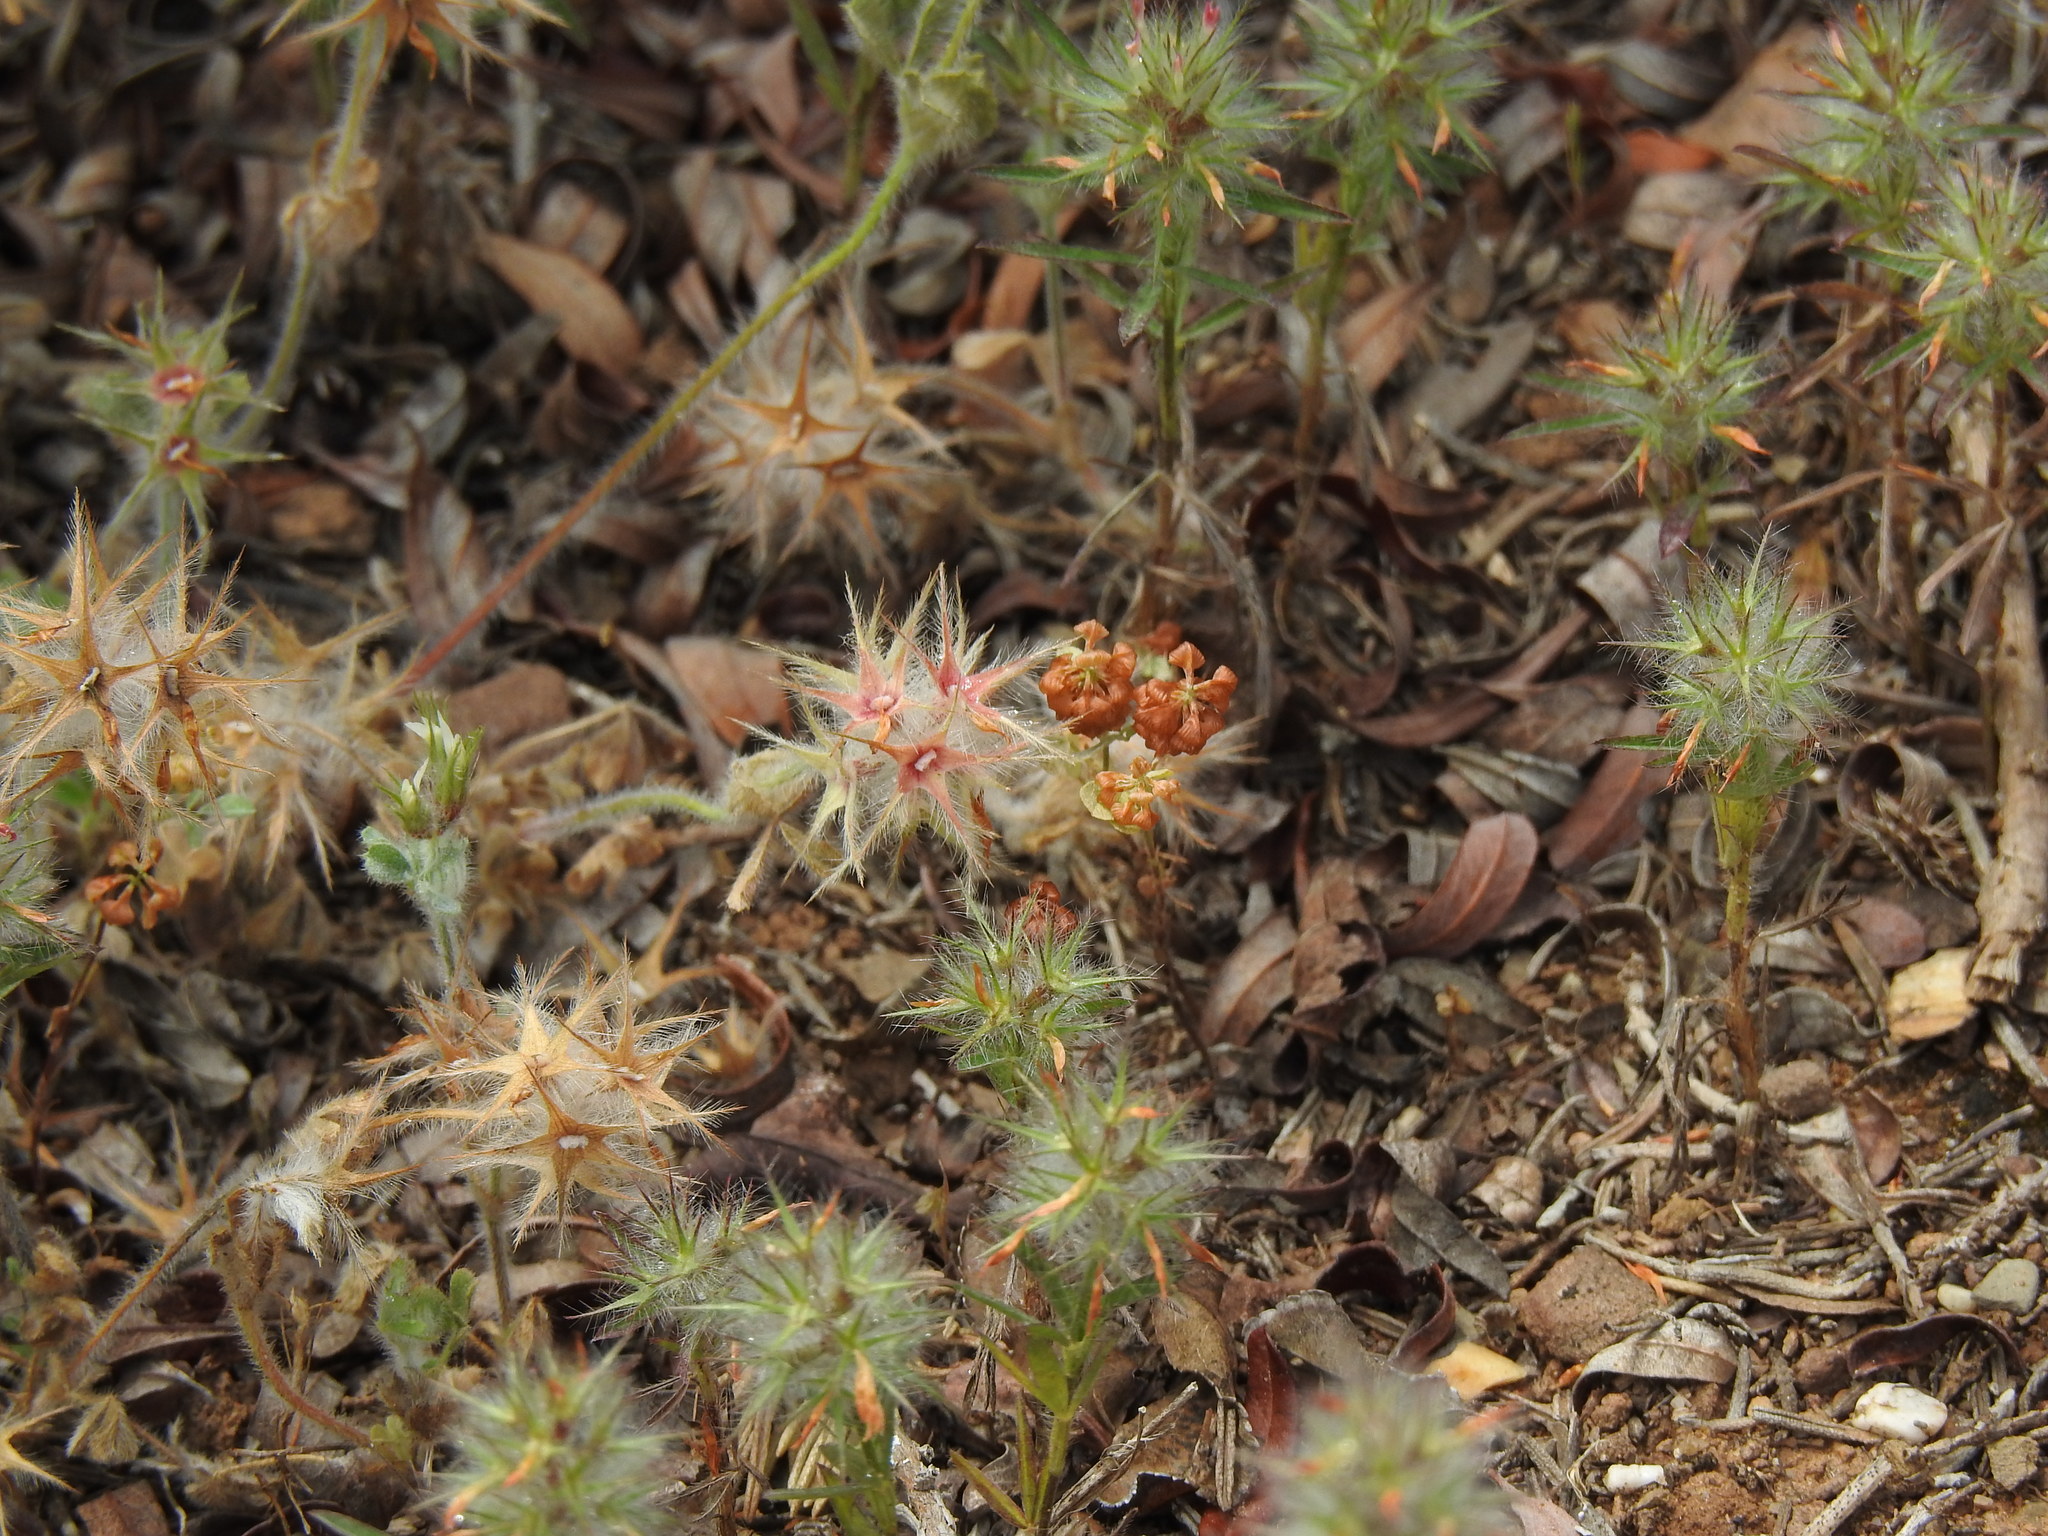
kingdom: Plantae
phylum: Tracheophyta
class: Magnoliopsida
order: Fabales
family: Fabaceae
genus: Trifolium
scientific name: Trifolium stellatum
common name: Starry clover
